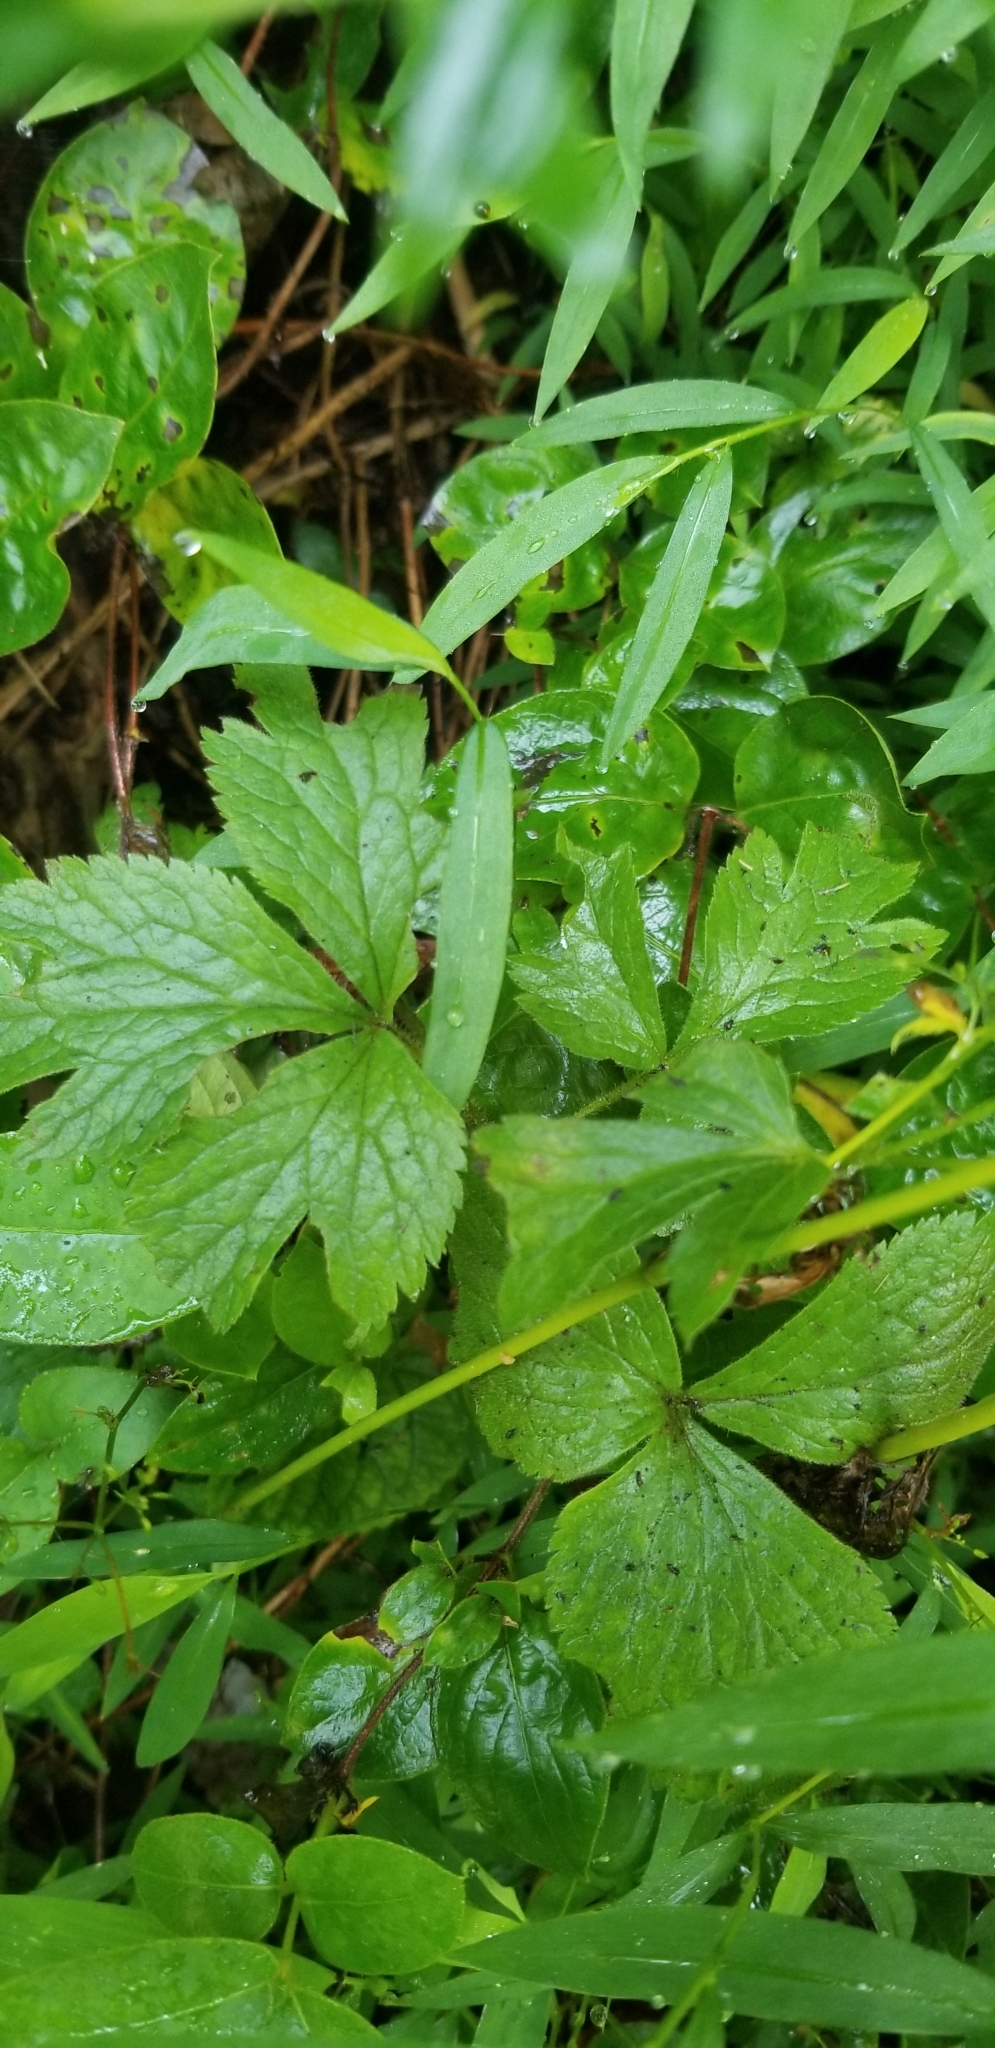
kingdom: Plantae
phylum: Tracheophyta
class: Magnoliopsida
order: Ranunculales
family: Ranunculaceae
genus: Anemone
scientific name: Anemone virginiana
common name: Tall anemone
